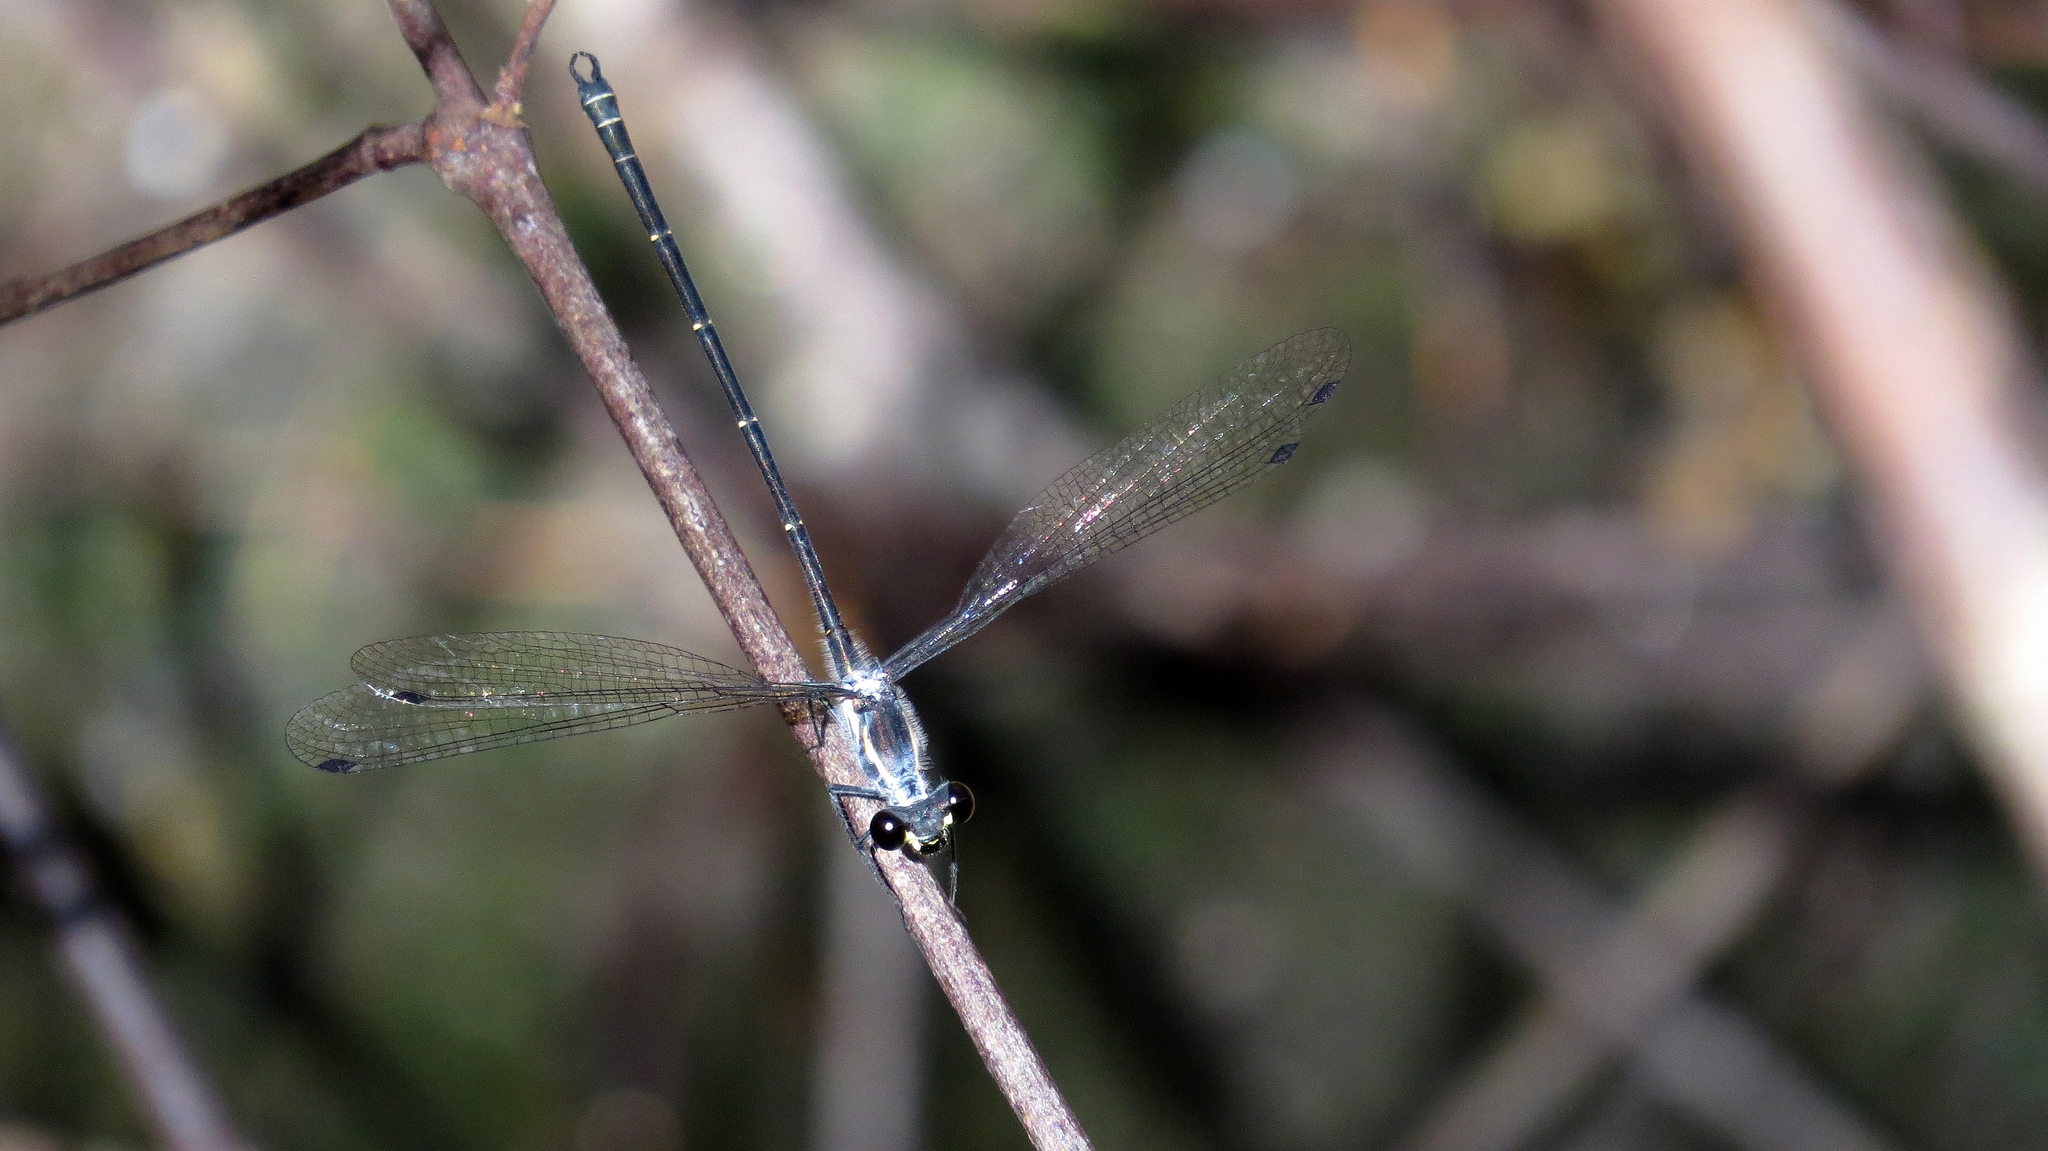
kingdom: Animalia
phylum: Arthropoda
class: Insecta
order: Odonata
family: Argiolestidae
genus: Austroargiolestes
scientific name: Austroargiolestes icteromelas
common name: Common flatwing
